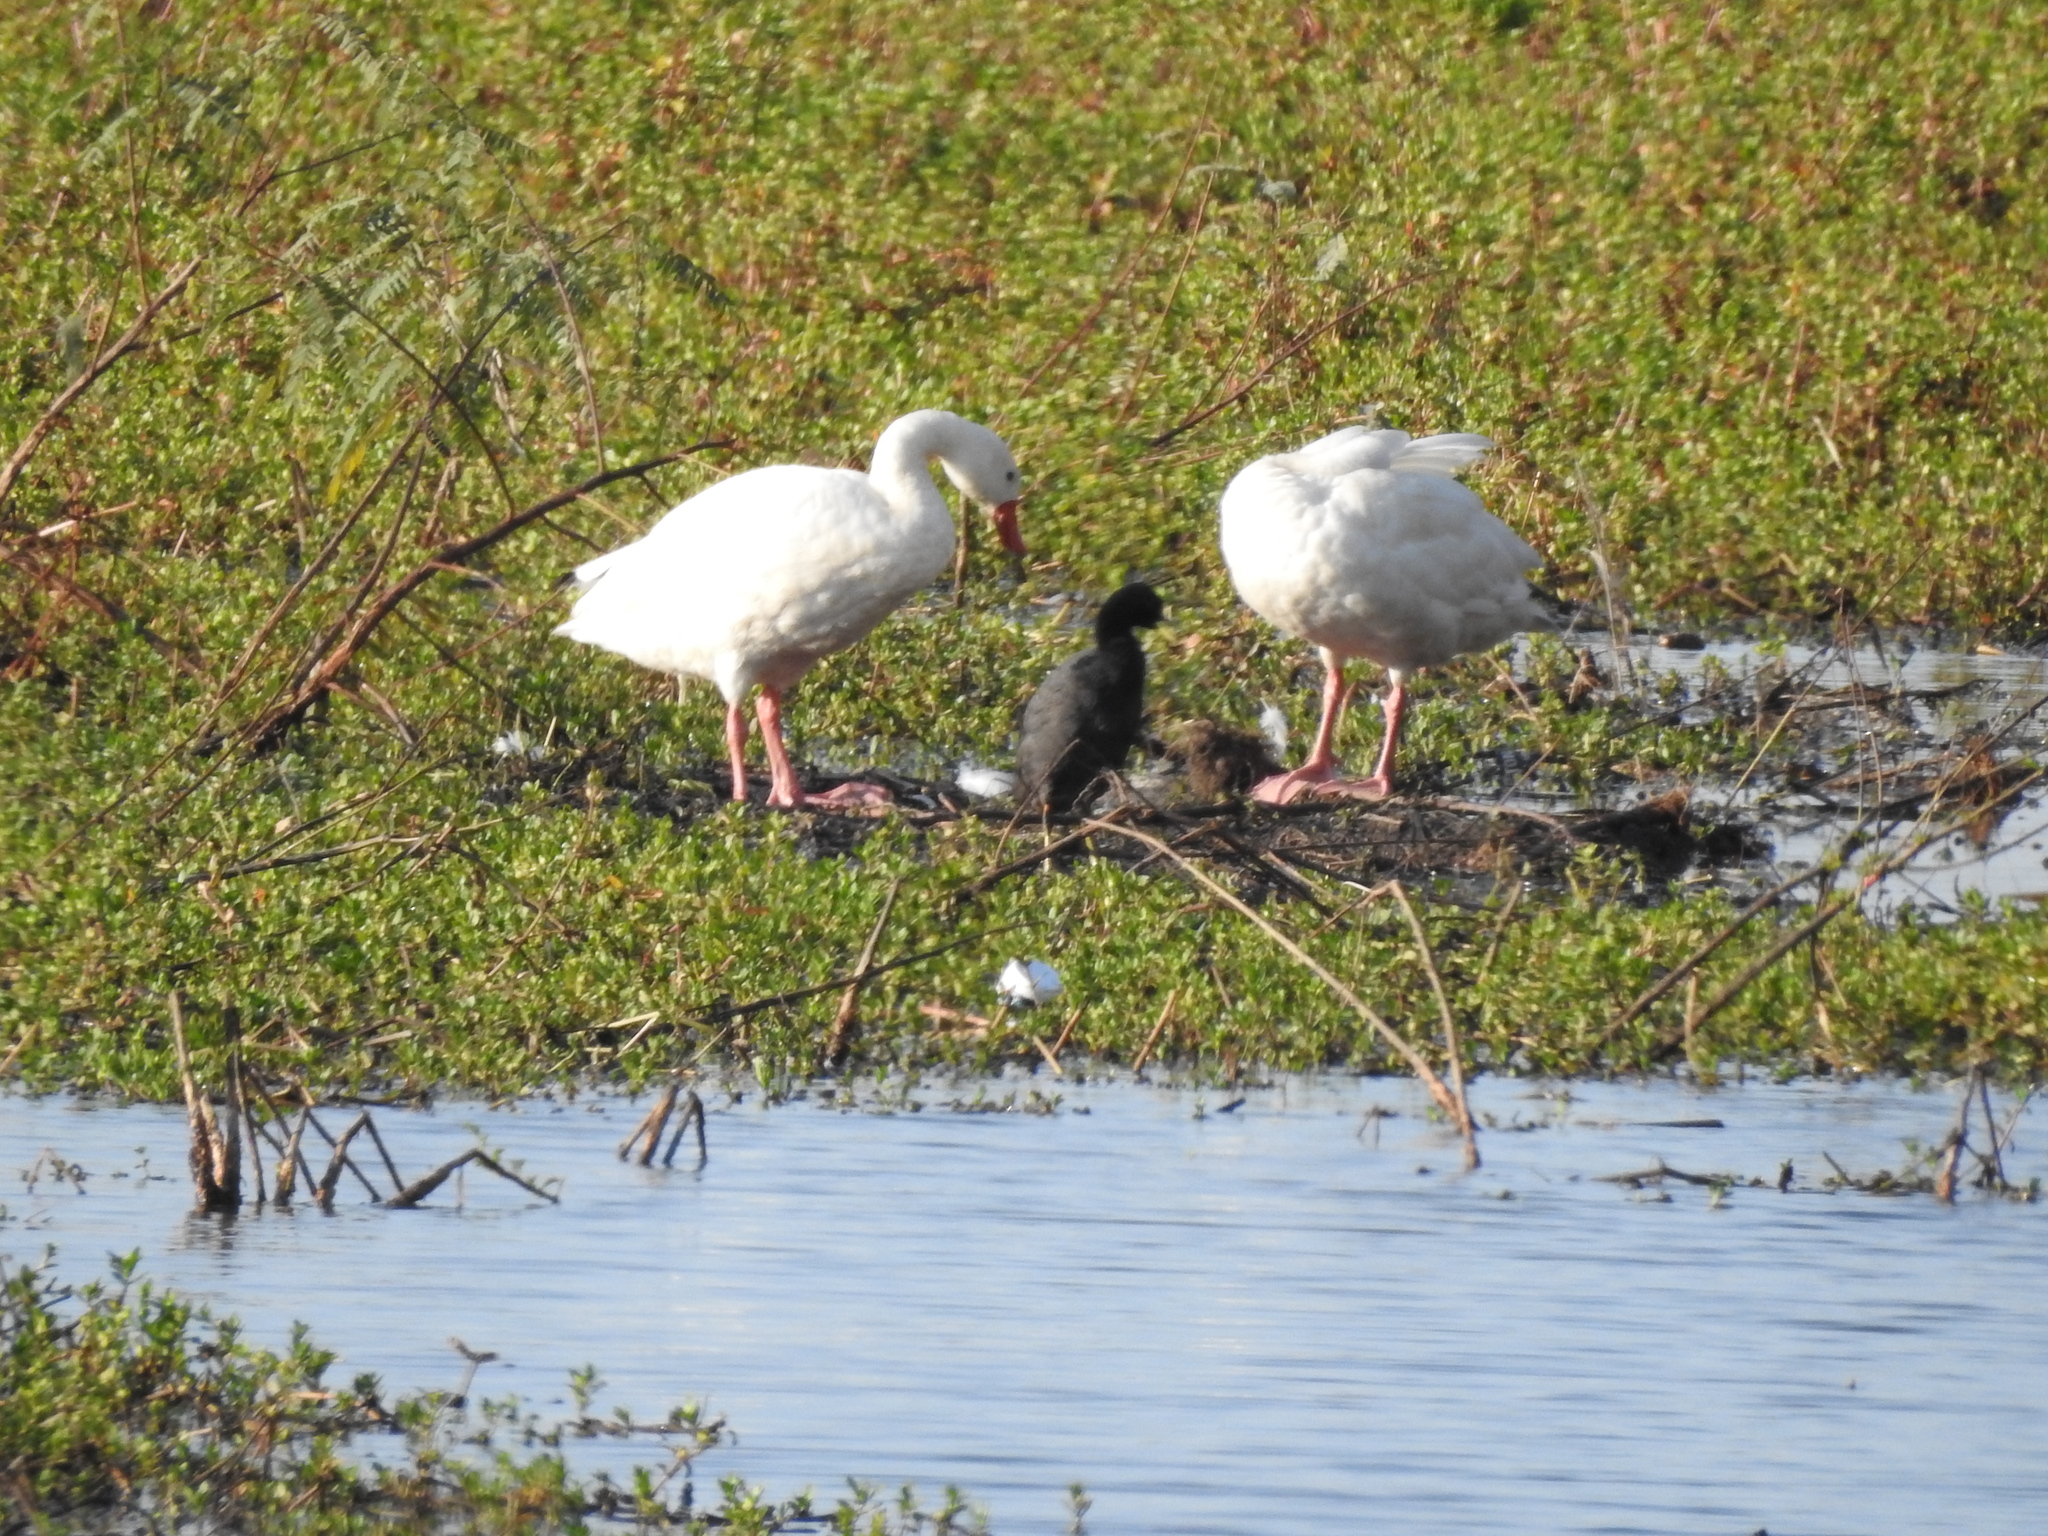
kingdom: Animalia
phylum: Chordata
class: Aves
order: Anseriformes
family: Anatidae
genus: Coscoroba
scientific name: Coscoroba coscoroba
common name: Coscoroba swan
